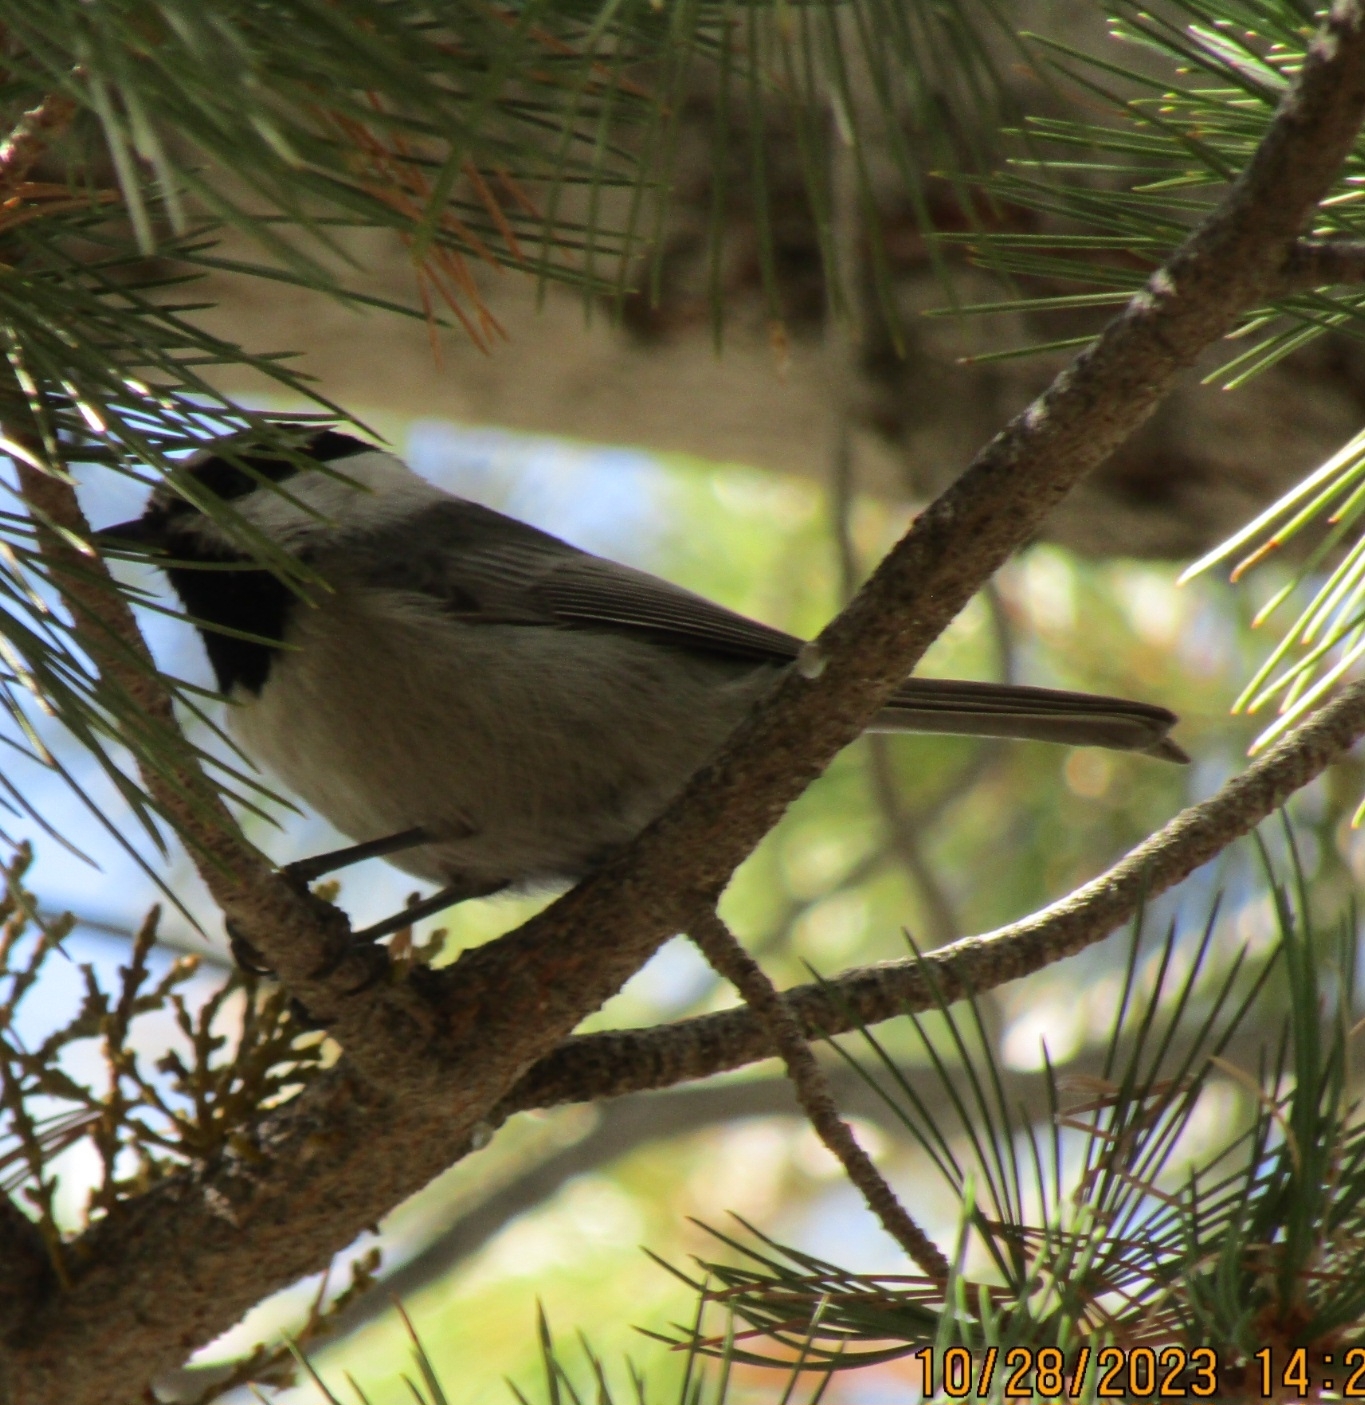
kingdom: Animalia
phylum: Chordata
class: Aves
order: Passeriformes
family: Paridae
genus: Poecile
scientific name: Poecile gambeli
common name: Mountain chickadee
